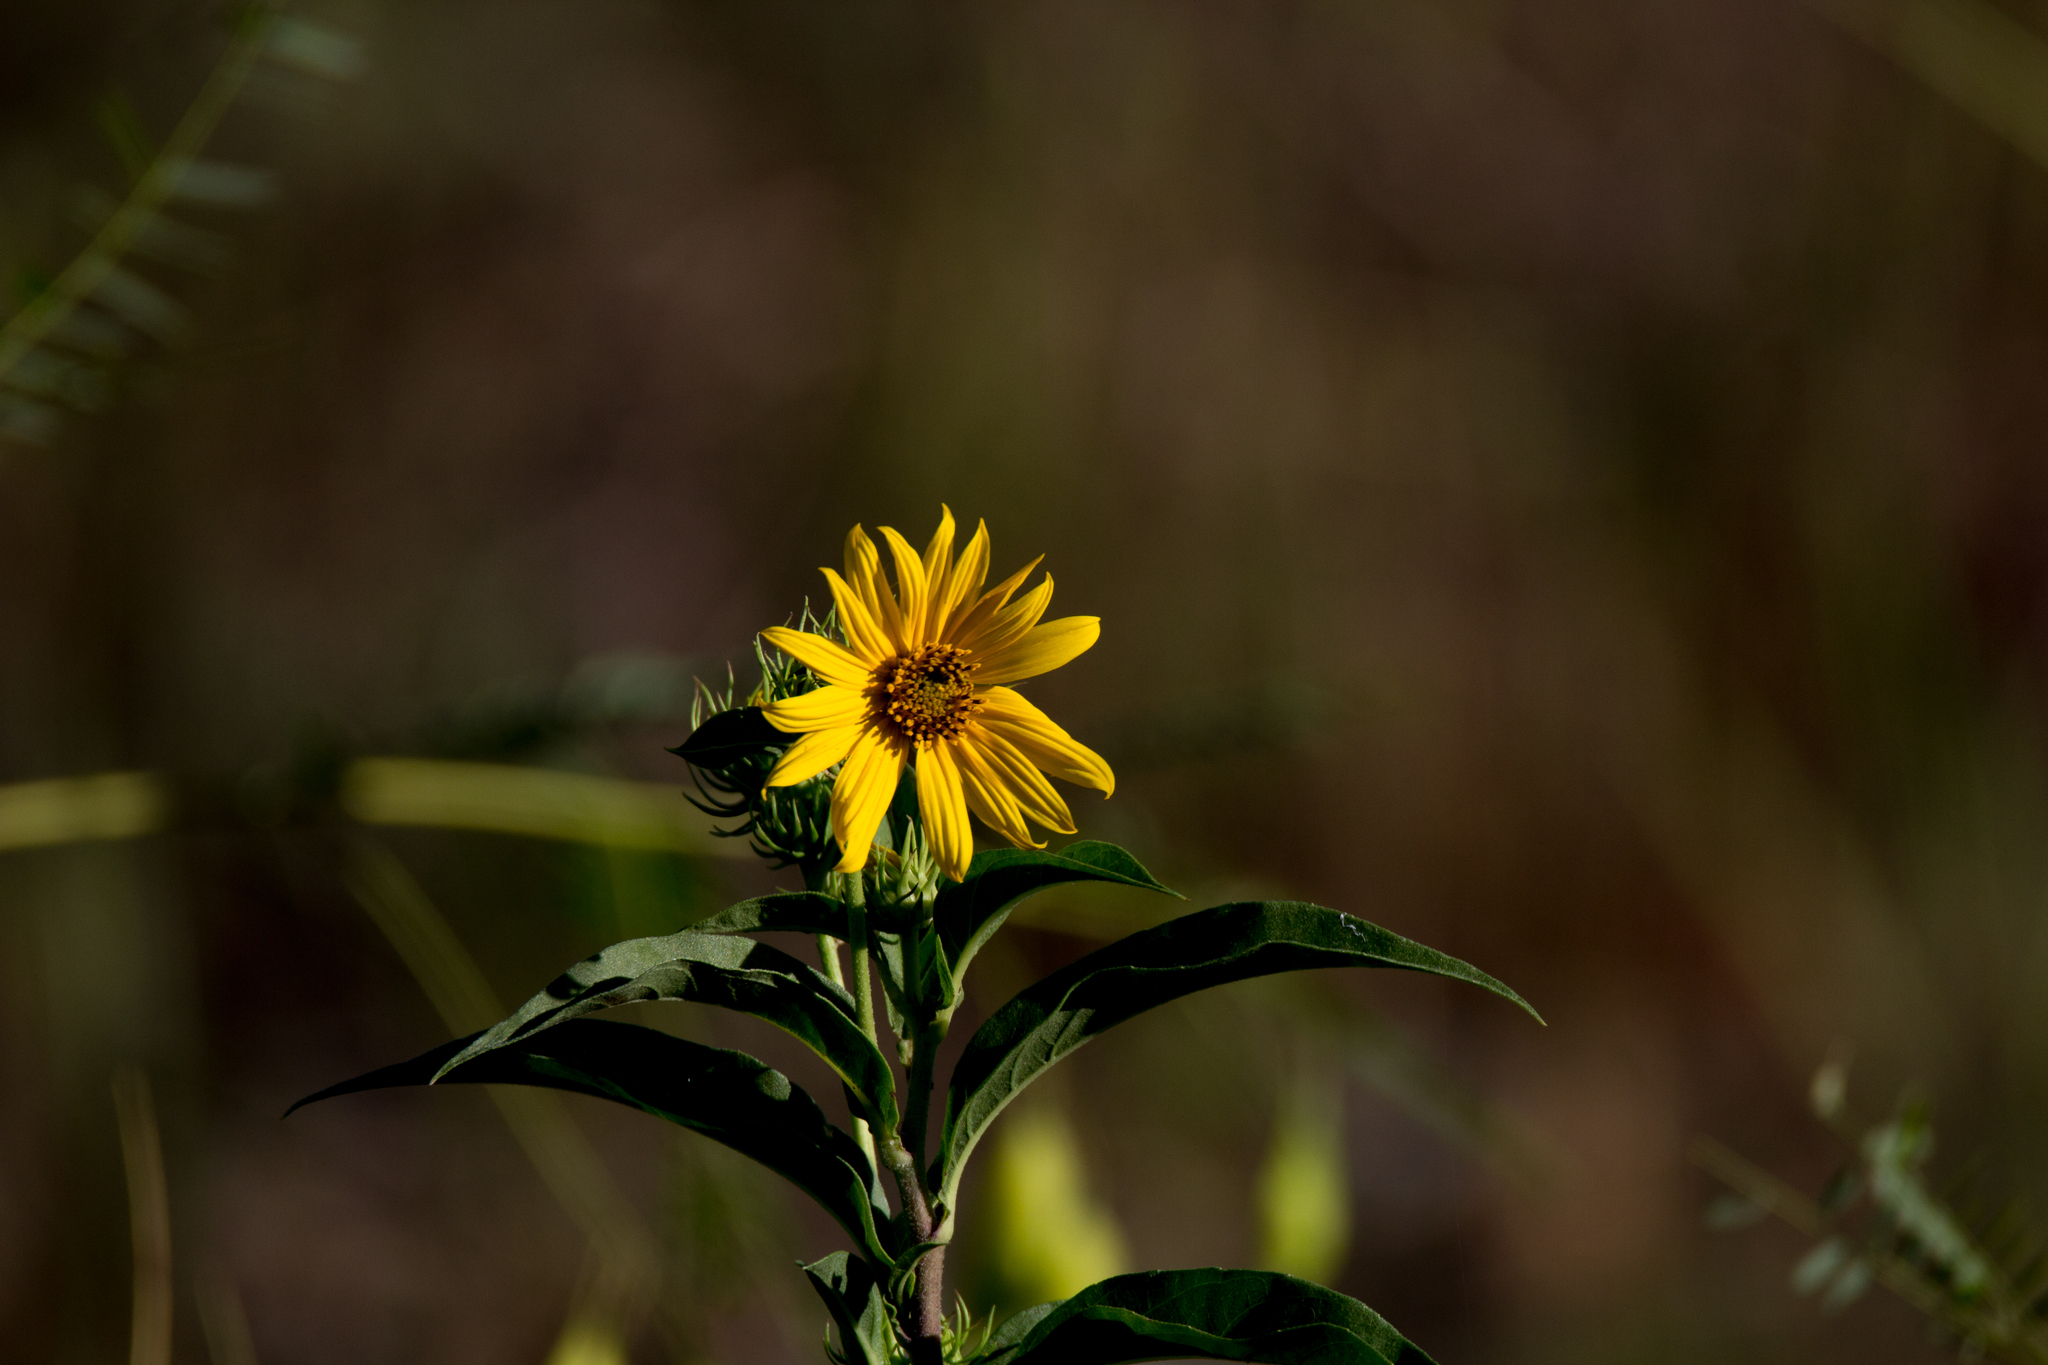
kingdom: Plantae
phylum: Tracheophyta
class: Magnoliopsida
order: Asterales
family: Asteraceae
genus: Helianthus
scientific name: Helianthus maximiliani
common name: Maximilian's sunflower
